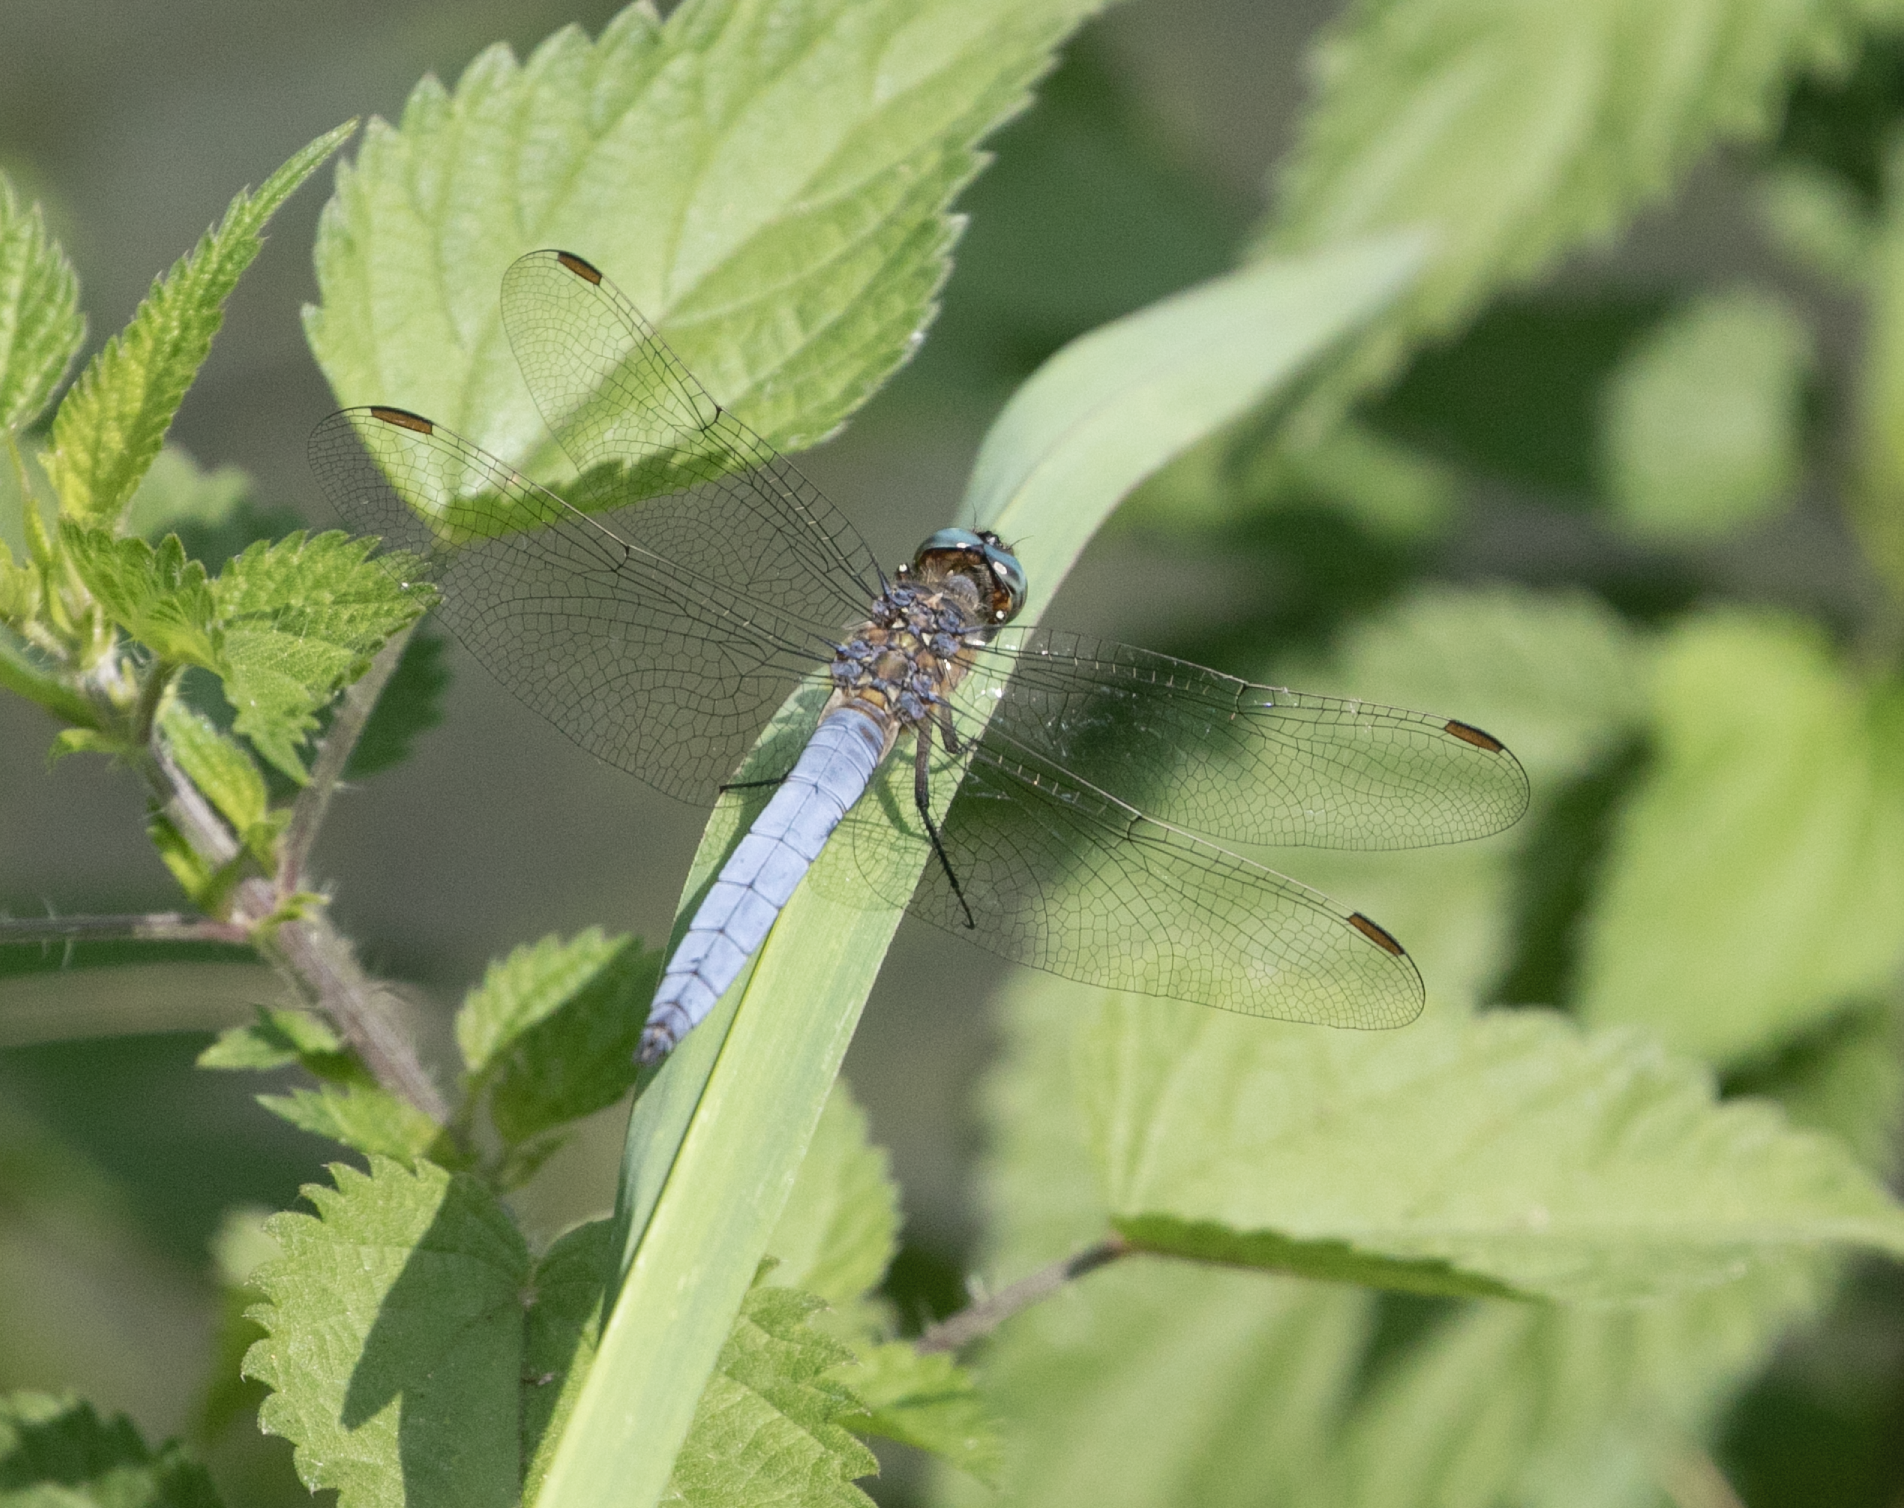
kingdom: Animalia
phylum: Arthropoda
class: Insecta
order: Odonata
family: Libellulidae
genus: Orthetrum
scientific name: Orthetrum coerulescens
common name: Keeled skimmer
